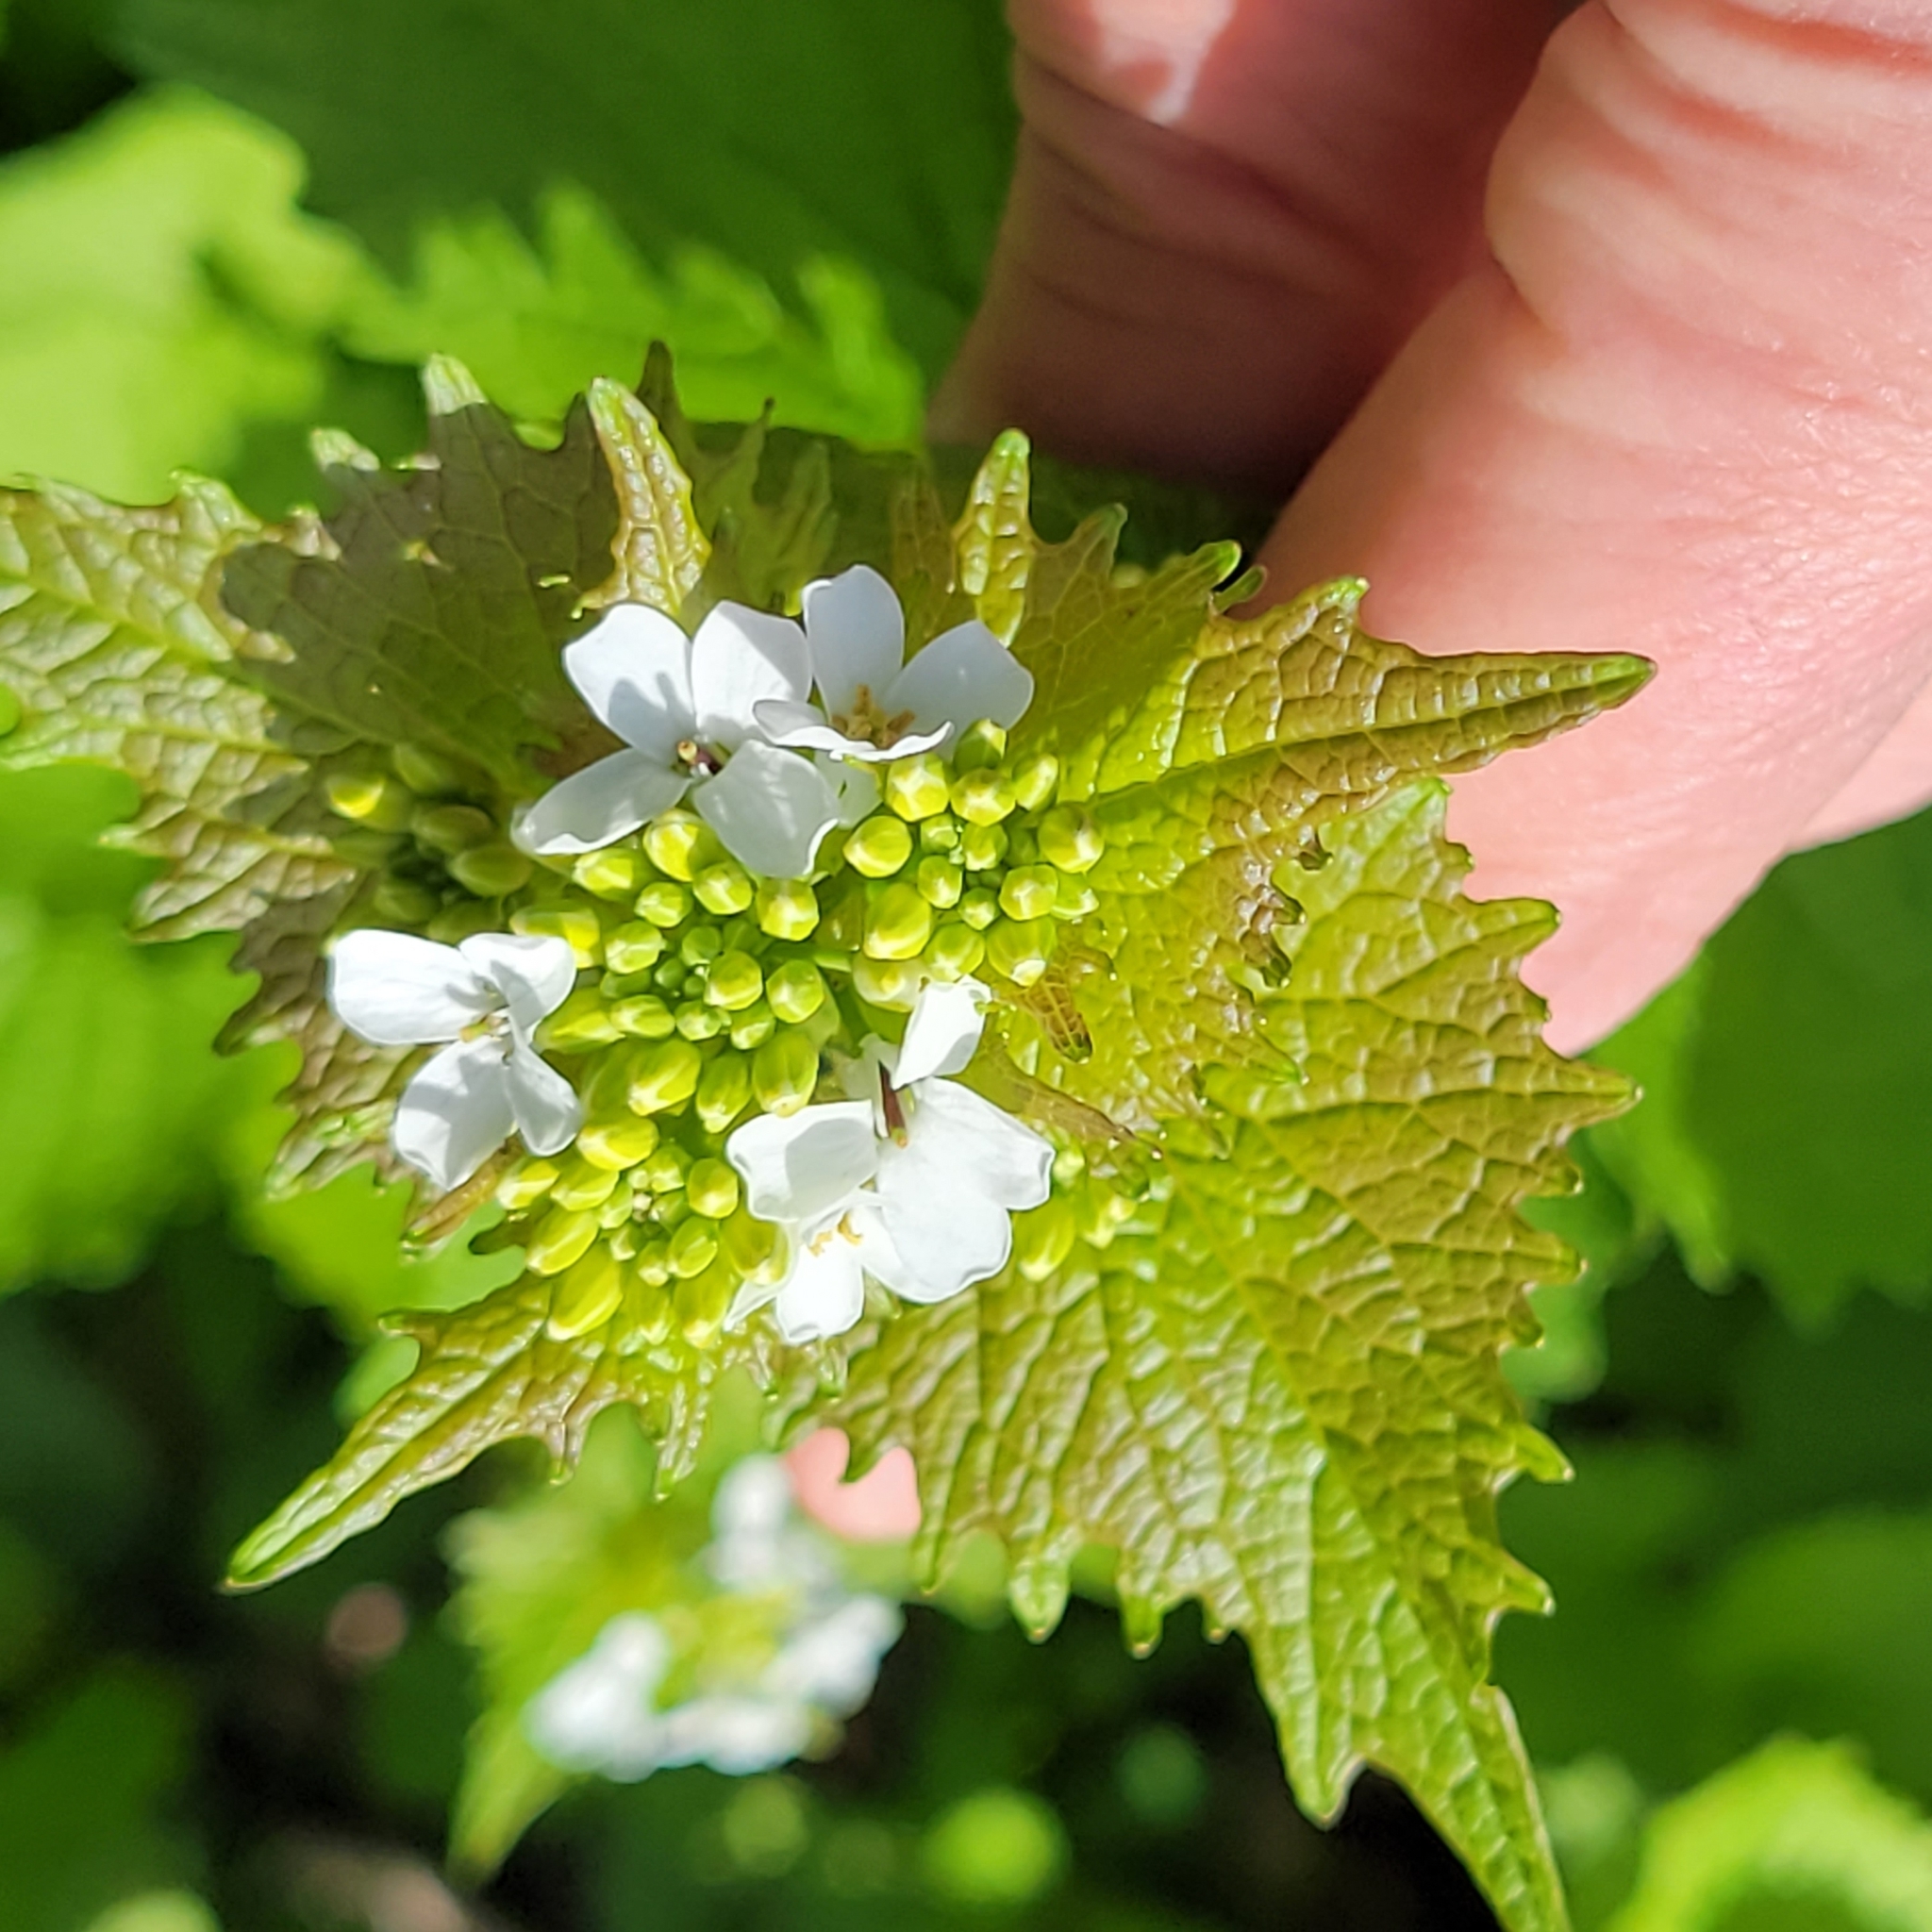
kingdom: Plantae
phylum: Tracheophyta
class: Magnoliopsida
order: Brassicales
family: Brassicaceae
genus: Alliaria
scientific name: Alliaria petiolata
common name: Garlic mustard
